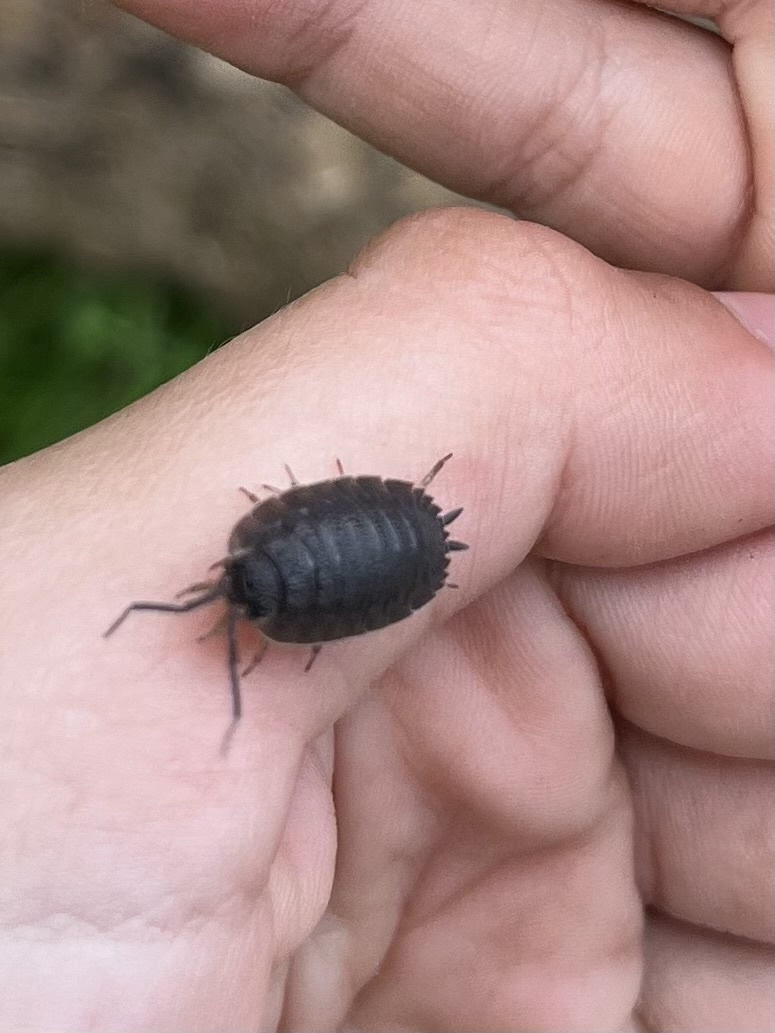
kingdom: Animalia
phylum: Arthropoda
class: Malacostraca
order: Isopoda
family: Porcellionidae
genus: Porcellio
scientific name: Porcellio scaber
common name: Common rough woodlouse
